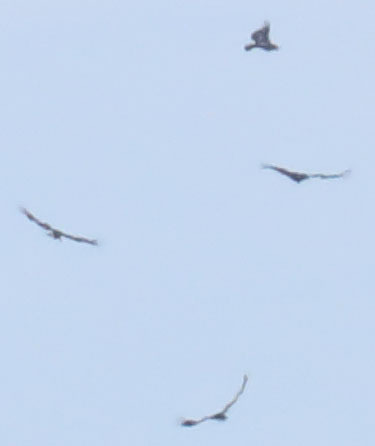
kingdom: Animalia
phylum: Chordata
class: Aves
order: Accipitriformes
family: Cathartidae
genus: Gymnogyps
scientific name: Gymnogyps californianus
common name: California condor
